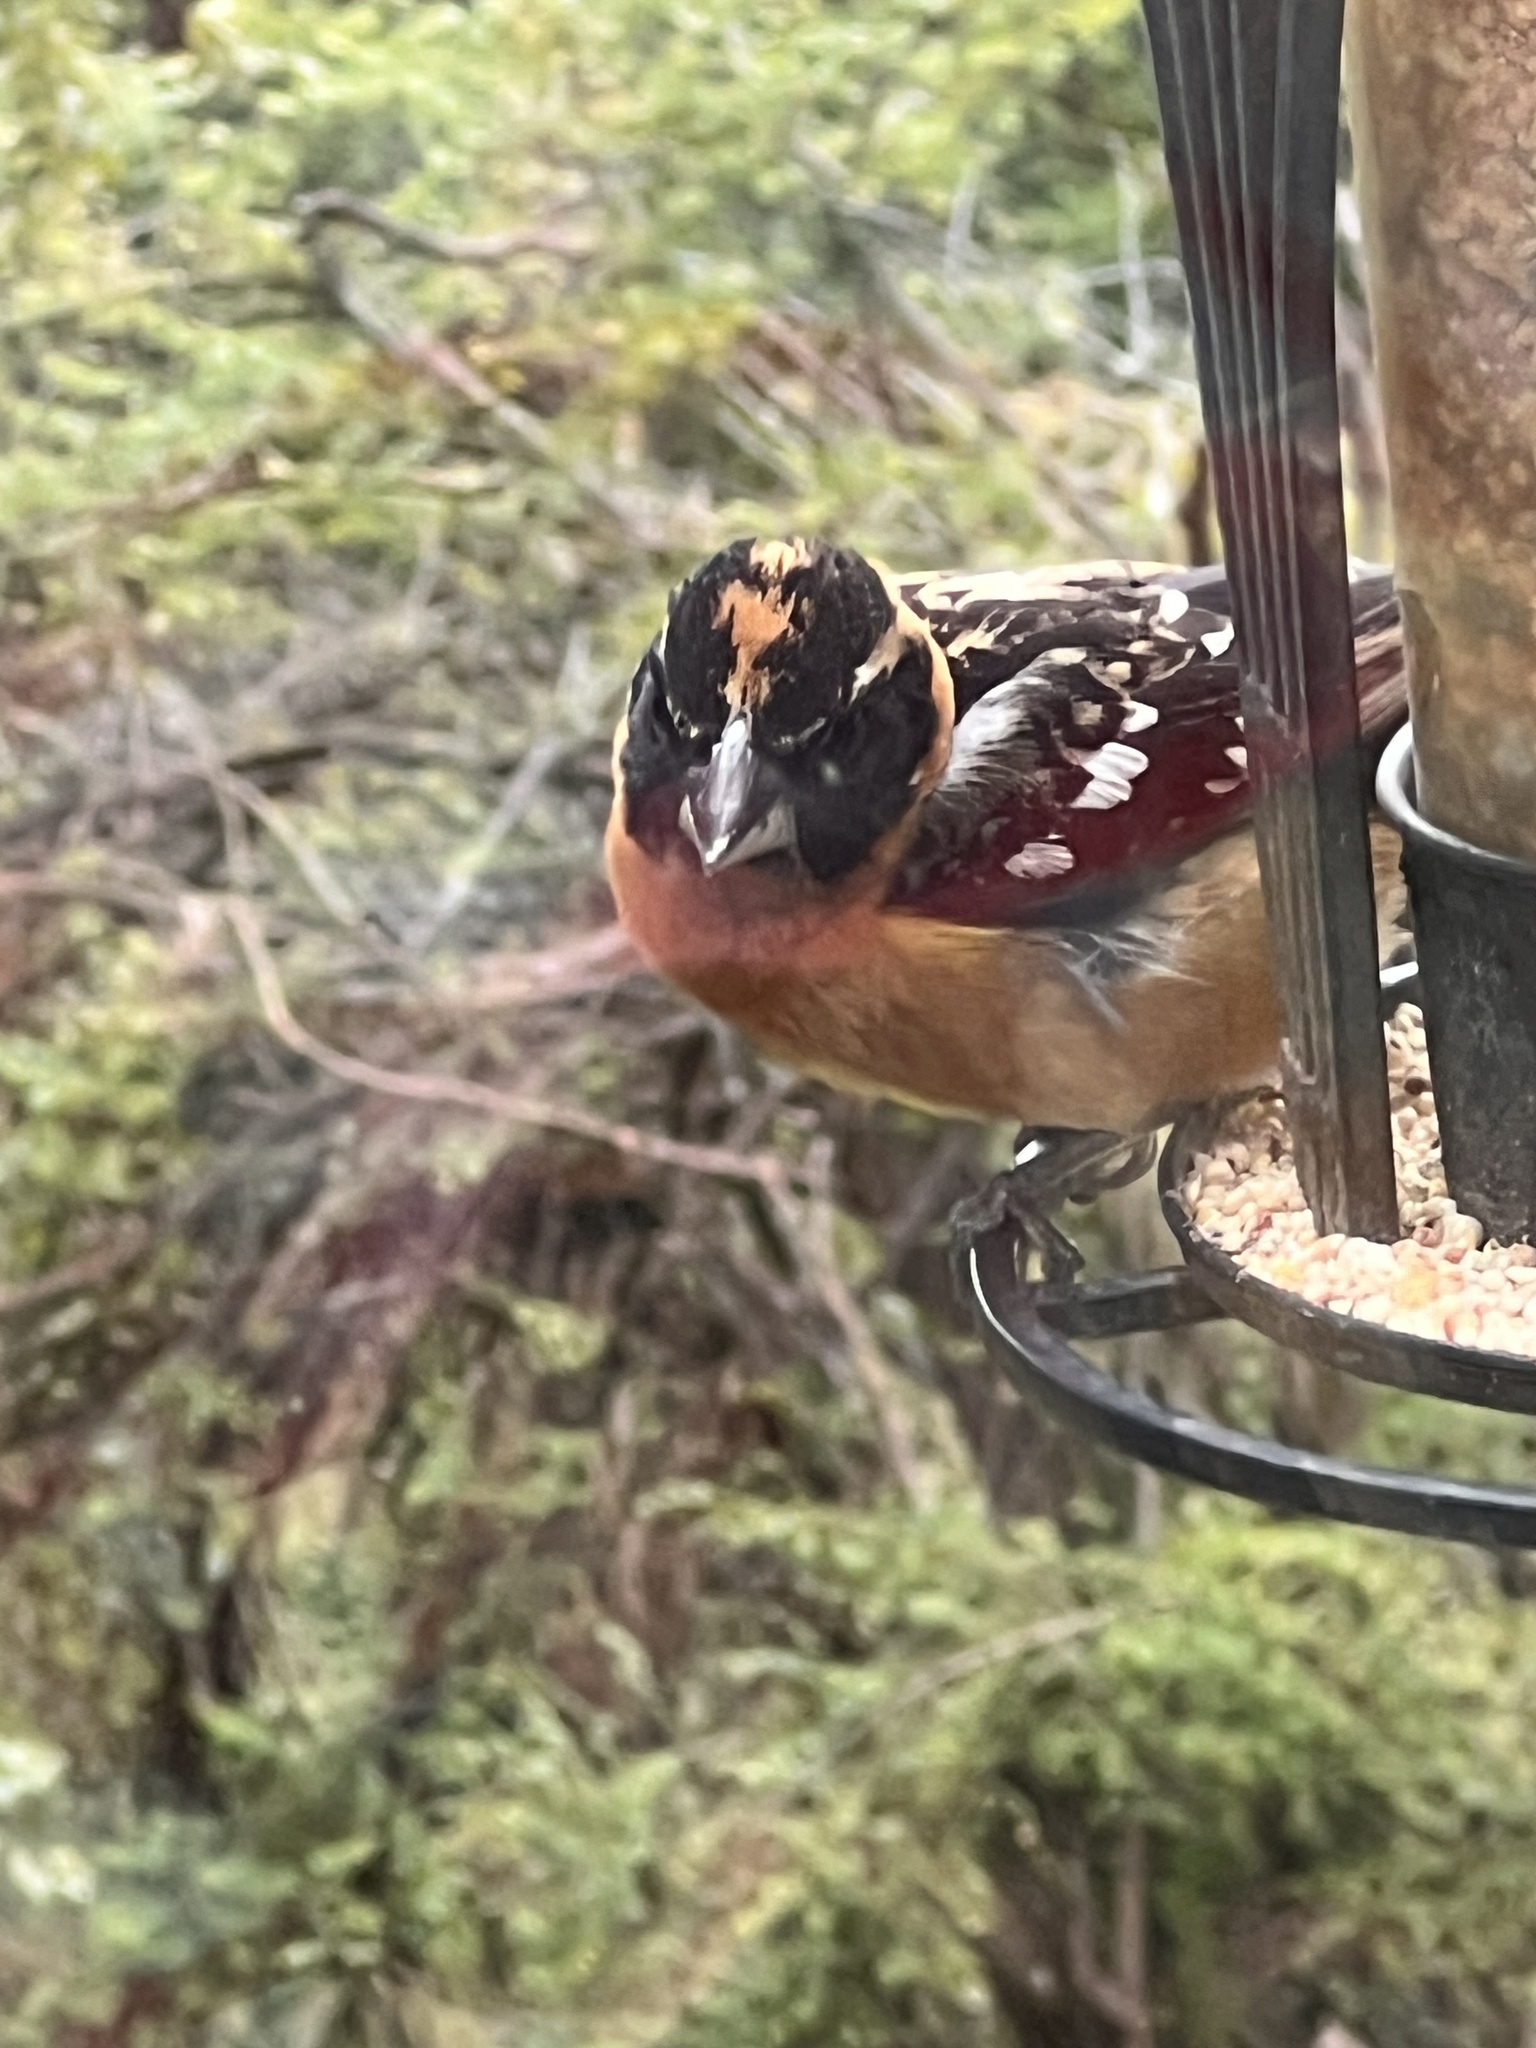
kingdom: Animalia
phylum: Chordata
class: Aves
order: Passeriformes
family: Cardinalidae
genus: Pheucticus
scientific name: Pheucticus melanocephalus
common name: Black-headed grosbeak
